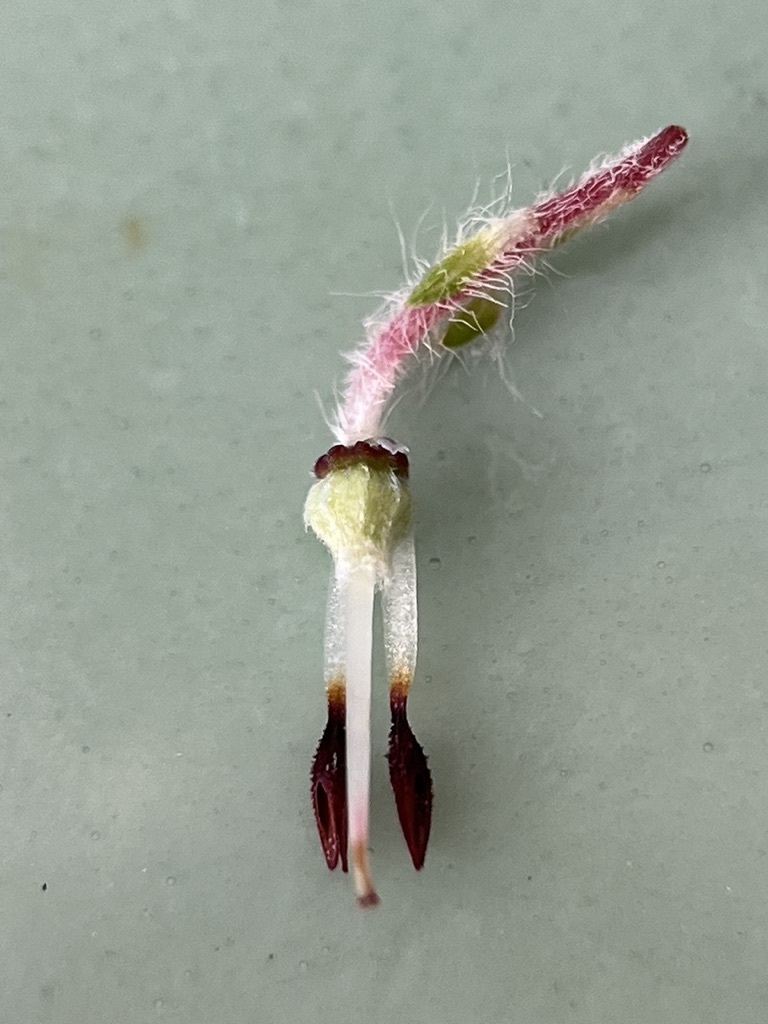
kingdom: Plantae
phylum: Tracheophyta
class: Magnoliopsida
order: Ericales
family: Ericaceae
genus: Erica
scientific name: Erica villosa
